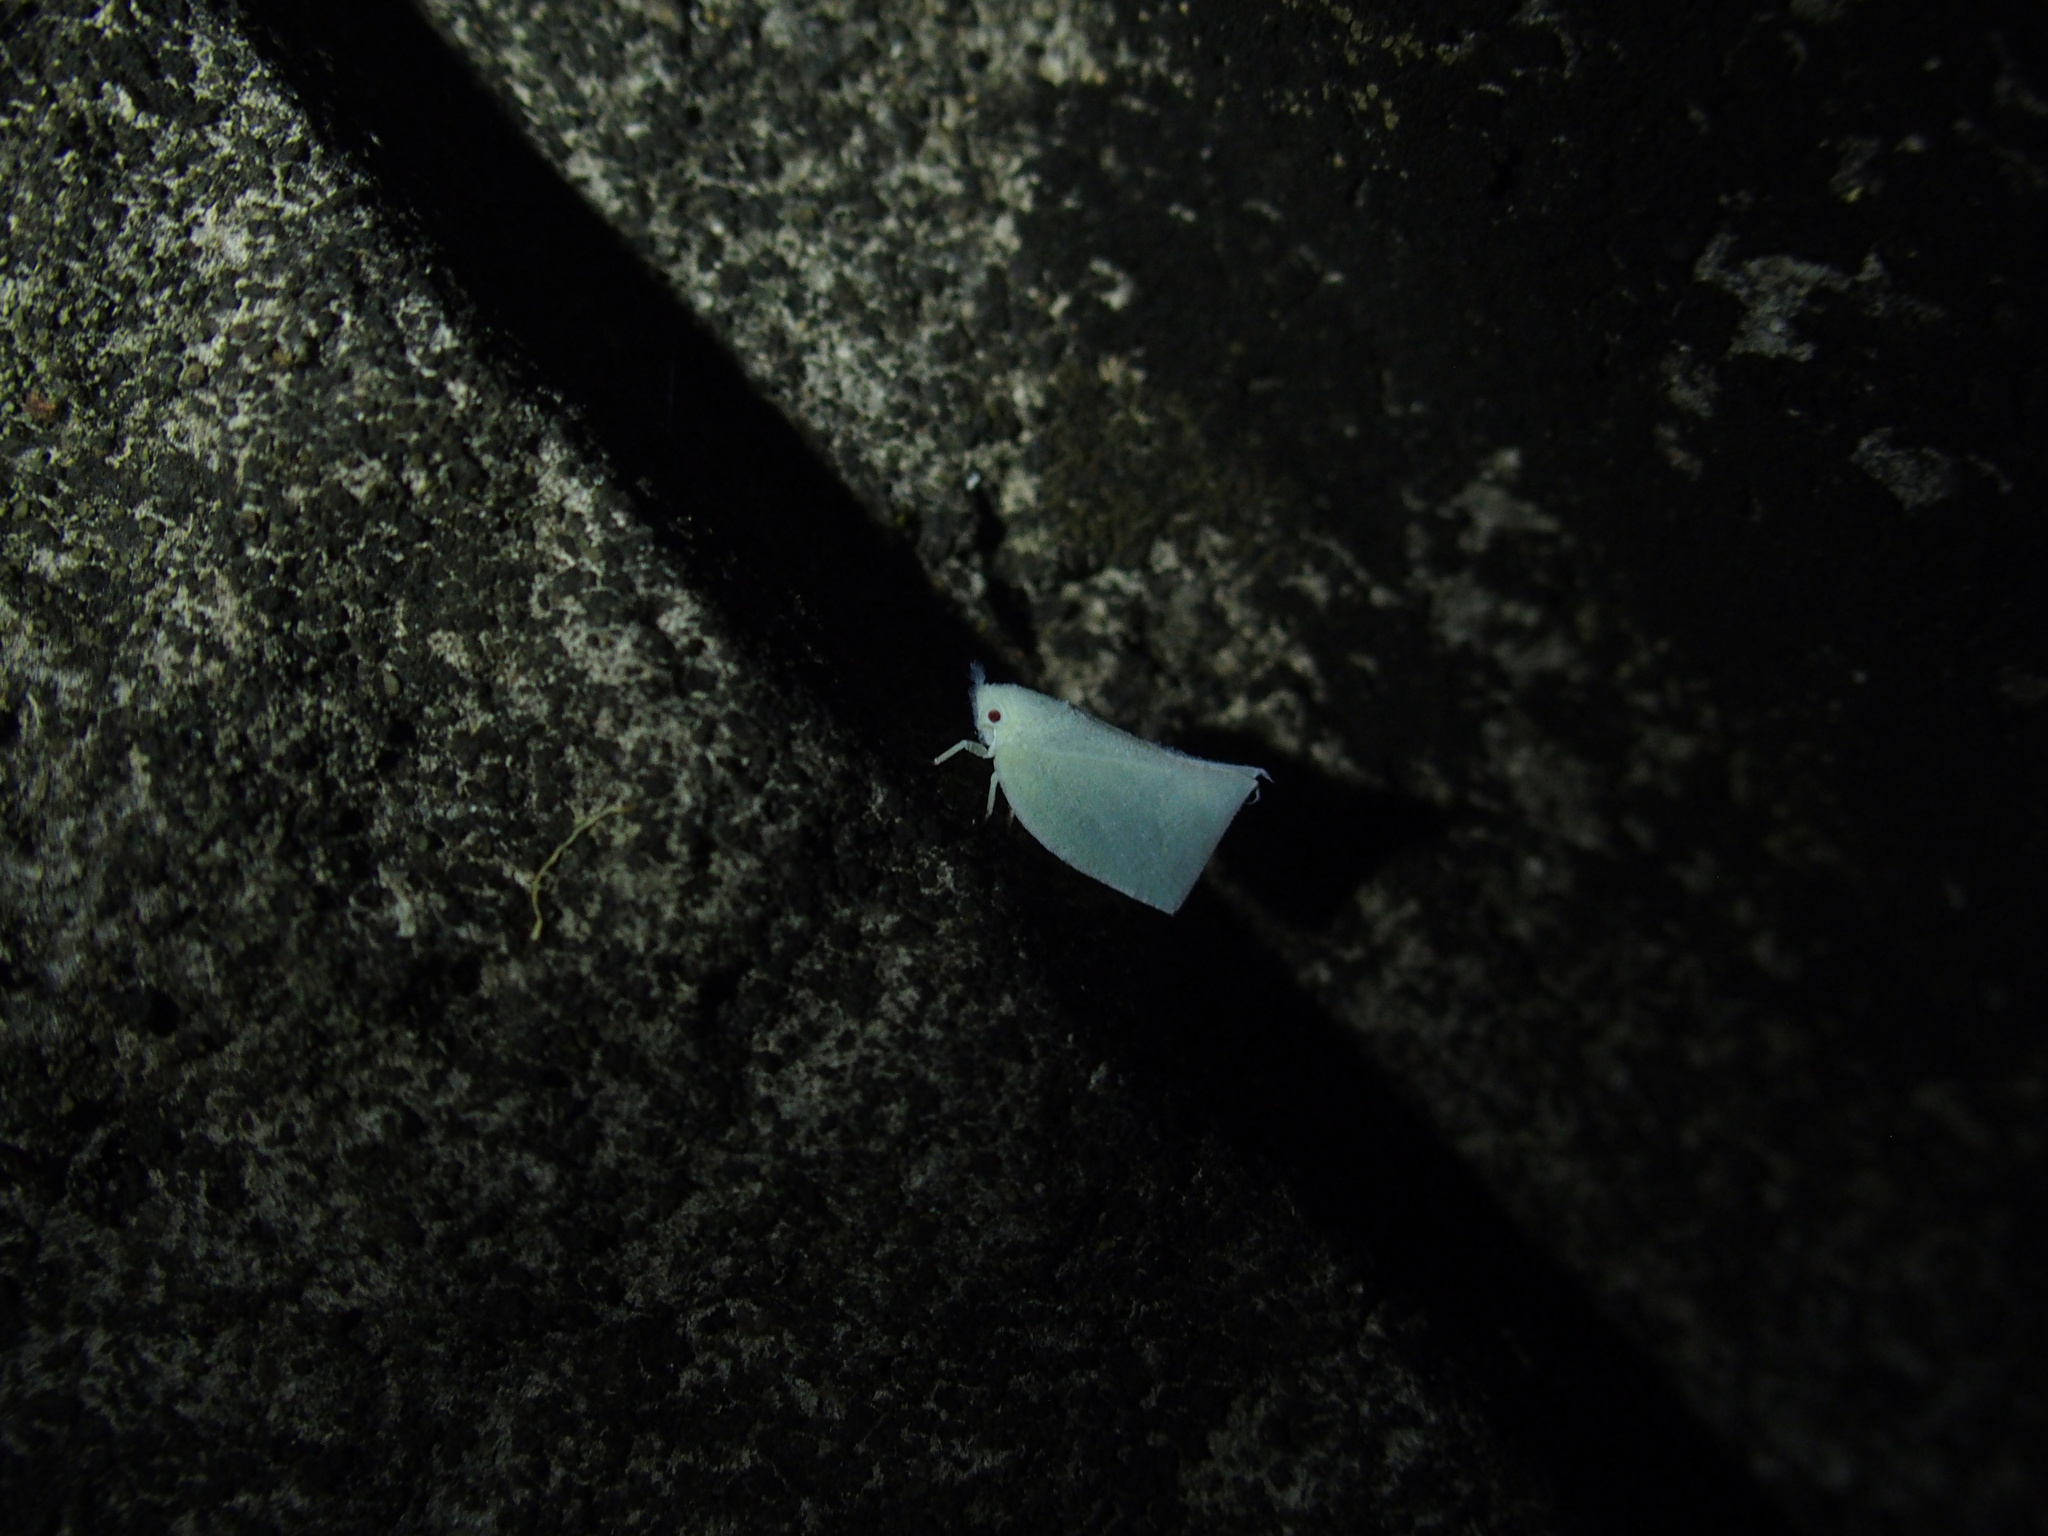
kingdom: Animalia
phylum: Arthropoda
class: Insecta
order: Hemiptera
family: Flatidae
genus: Phylliana
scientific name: Phylliana alba
